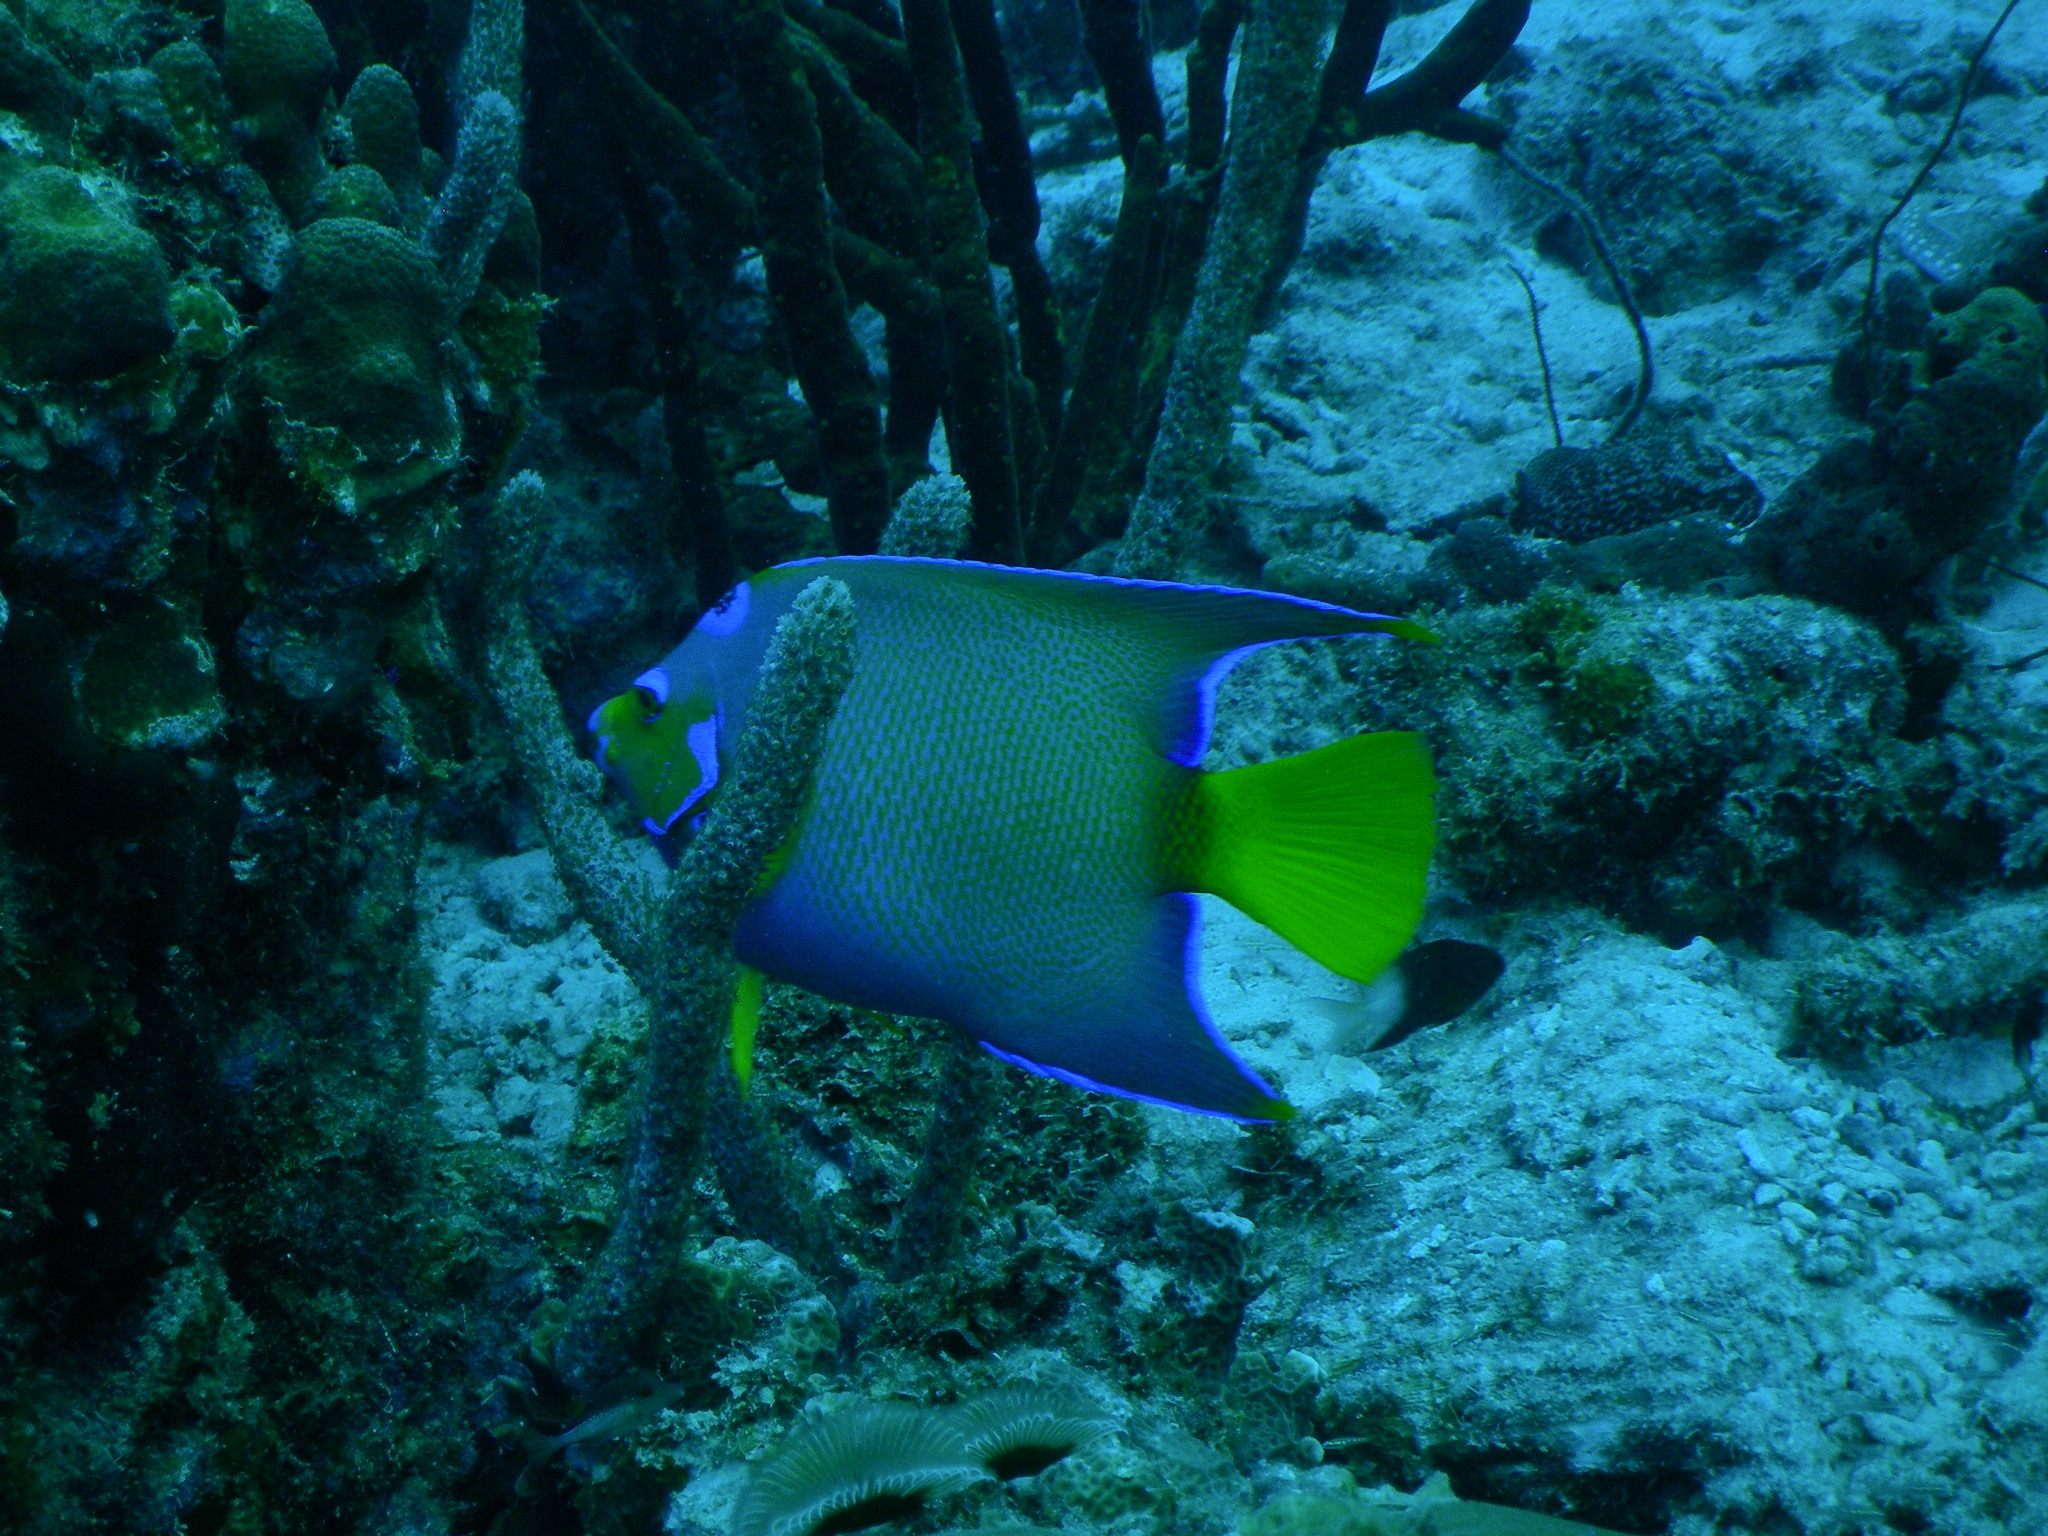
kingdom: Animalia
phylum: Chordata
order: Perciformes
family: Pomacanthidae
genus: Holacanthus
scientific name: Holacanthus ciliaris
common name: Queen angelfish
